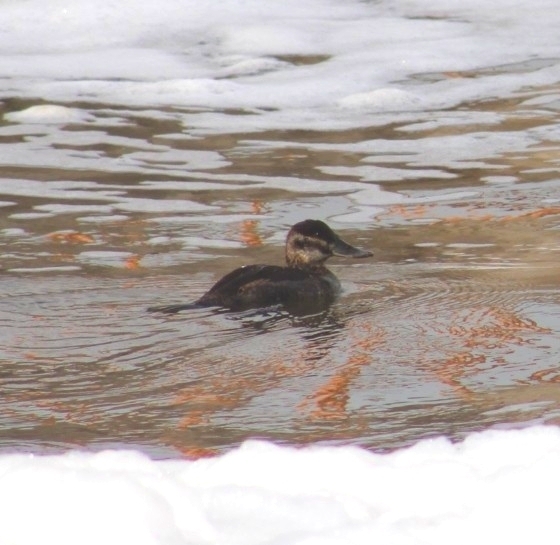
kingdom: Animalia
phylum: Chordata
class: Aves
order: Anseriformes
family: Anatidae
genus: Oxyura
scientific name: Oxyura jamaicensis
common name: Ruddy duck
